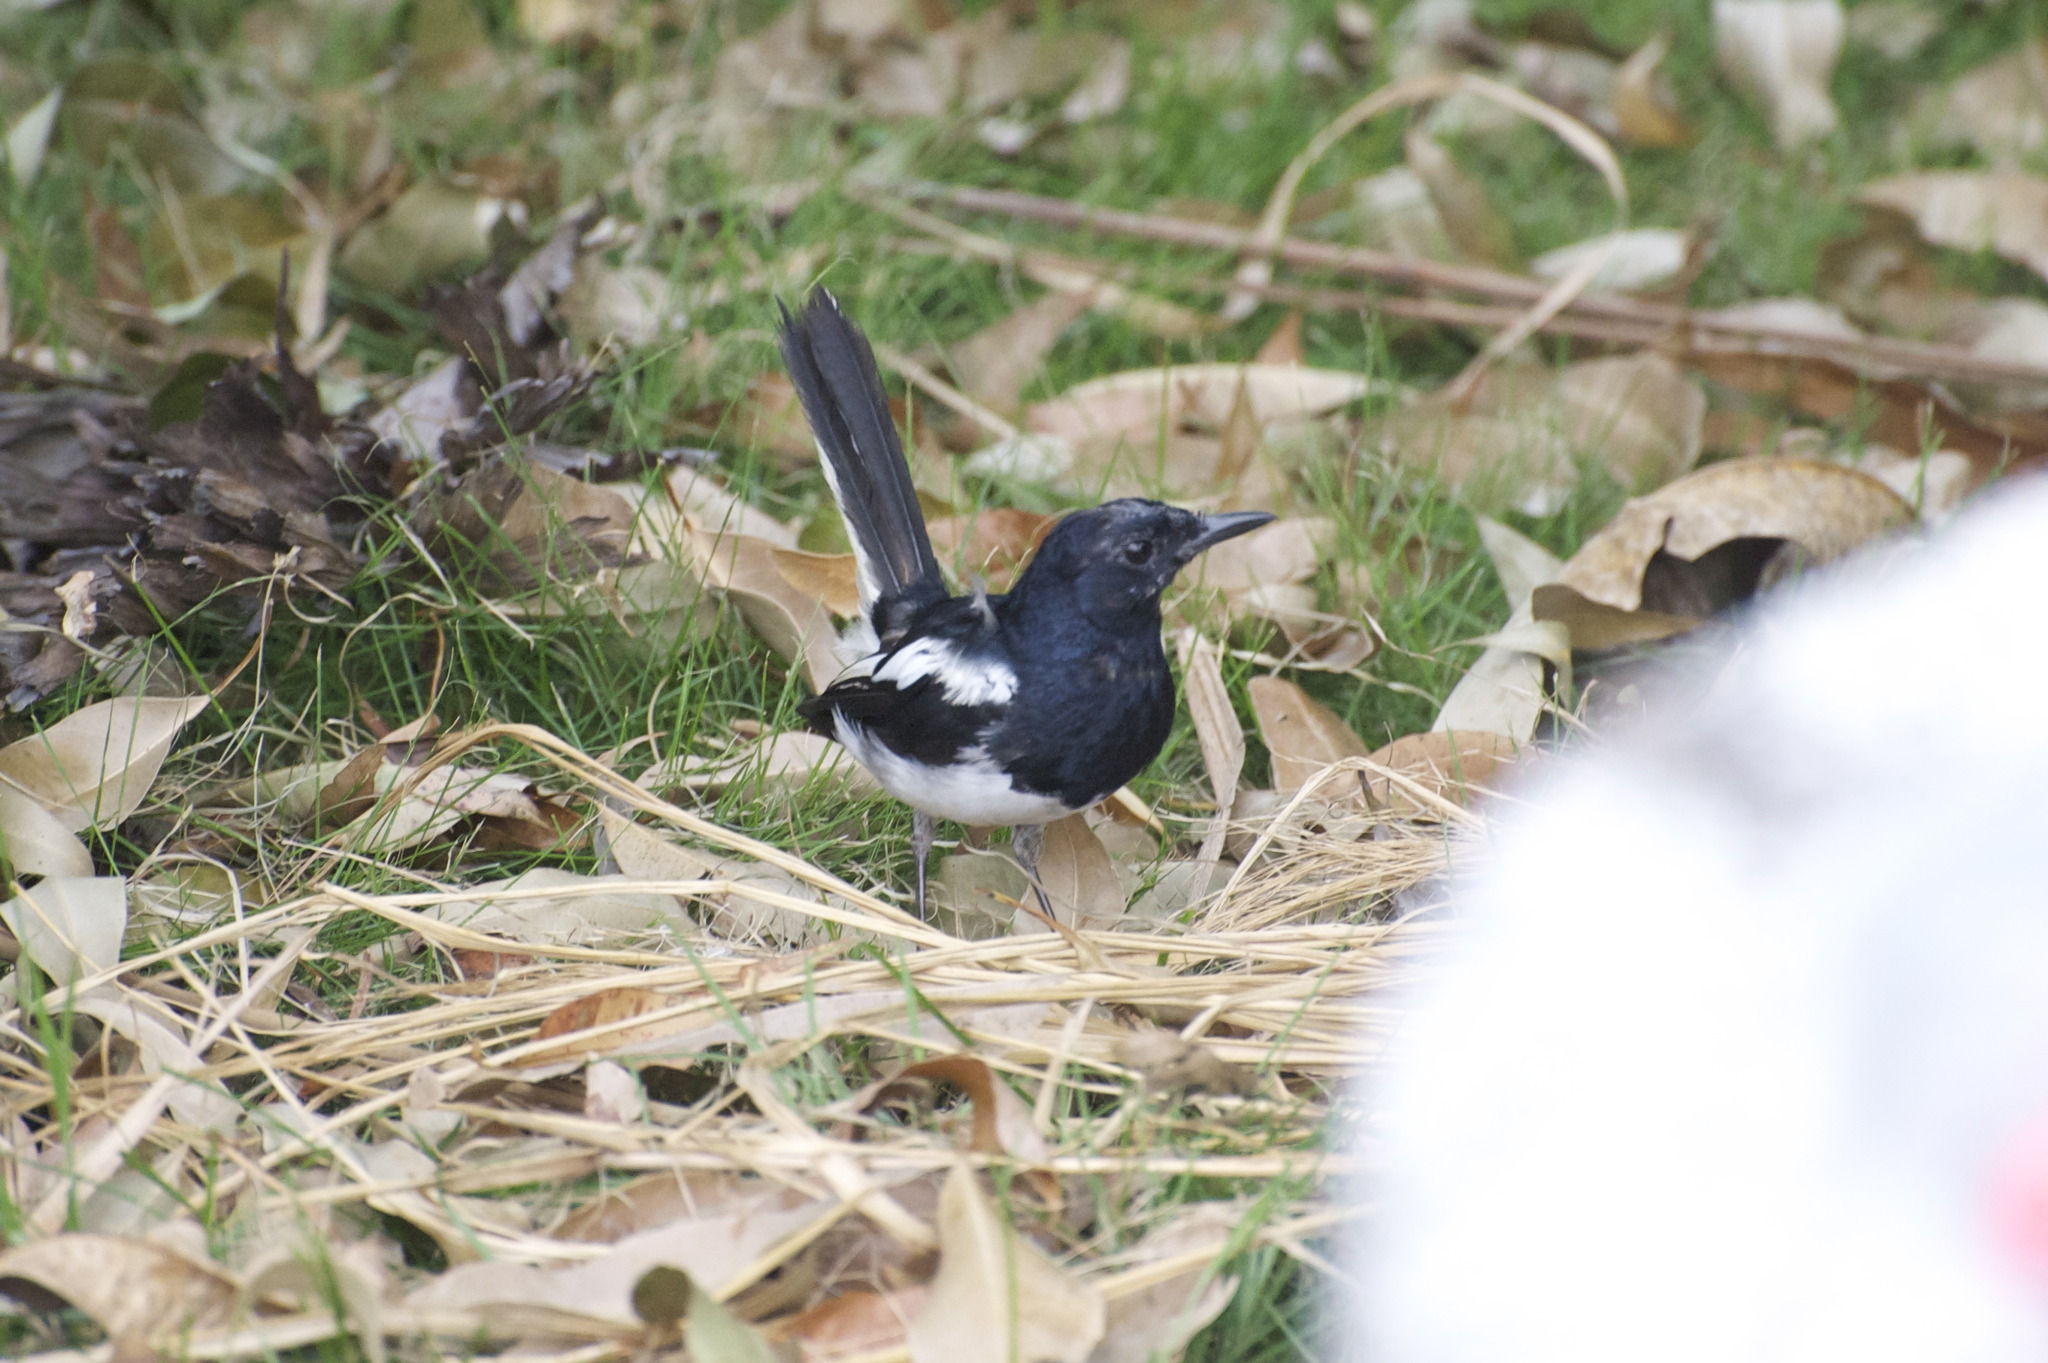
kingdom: Animalia
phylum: Chordata
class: Aves
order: Passeriformes
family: Muscicapidae
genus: Copsychus
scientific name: Copsychus saularis
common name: Oriental magpie-robin
